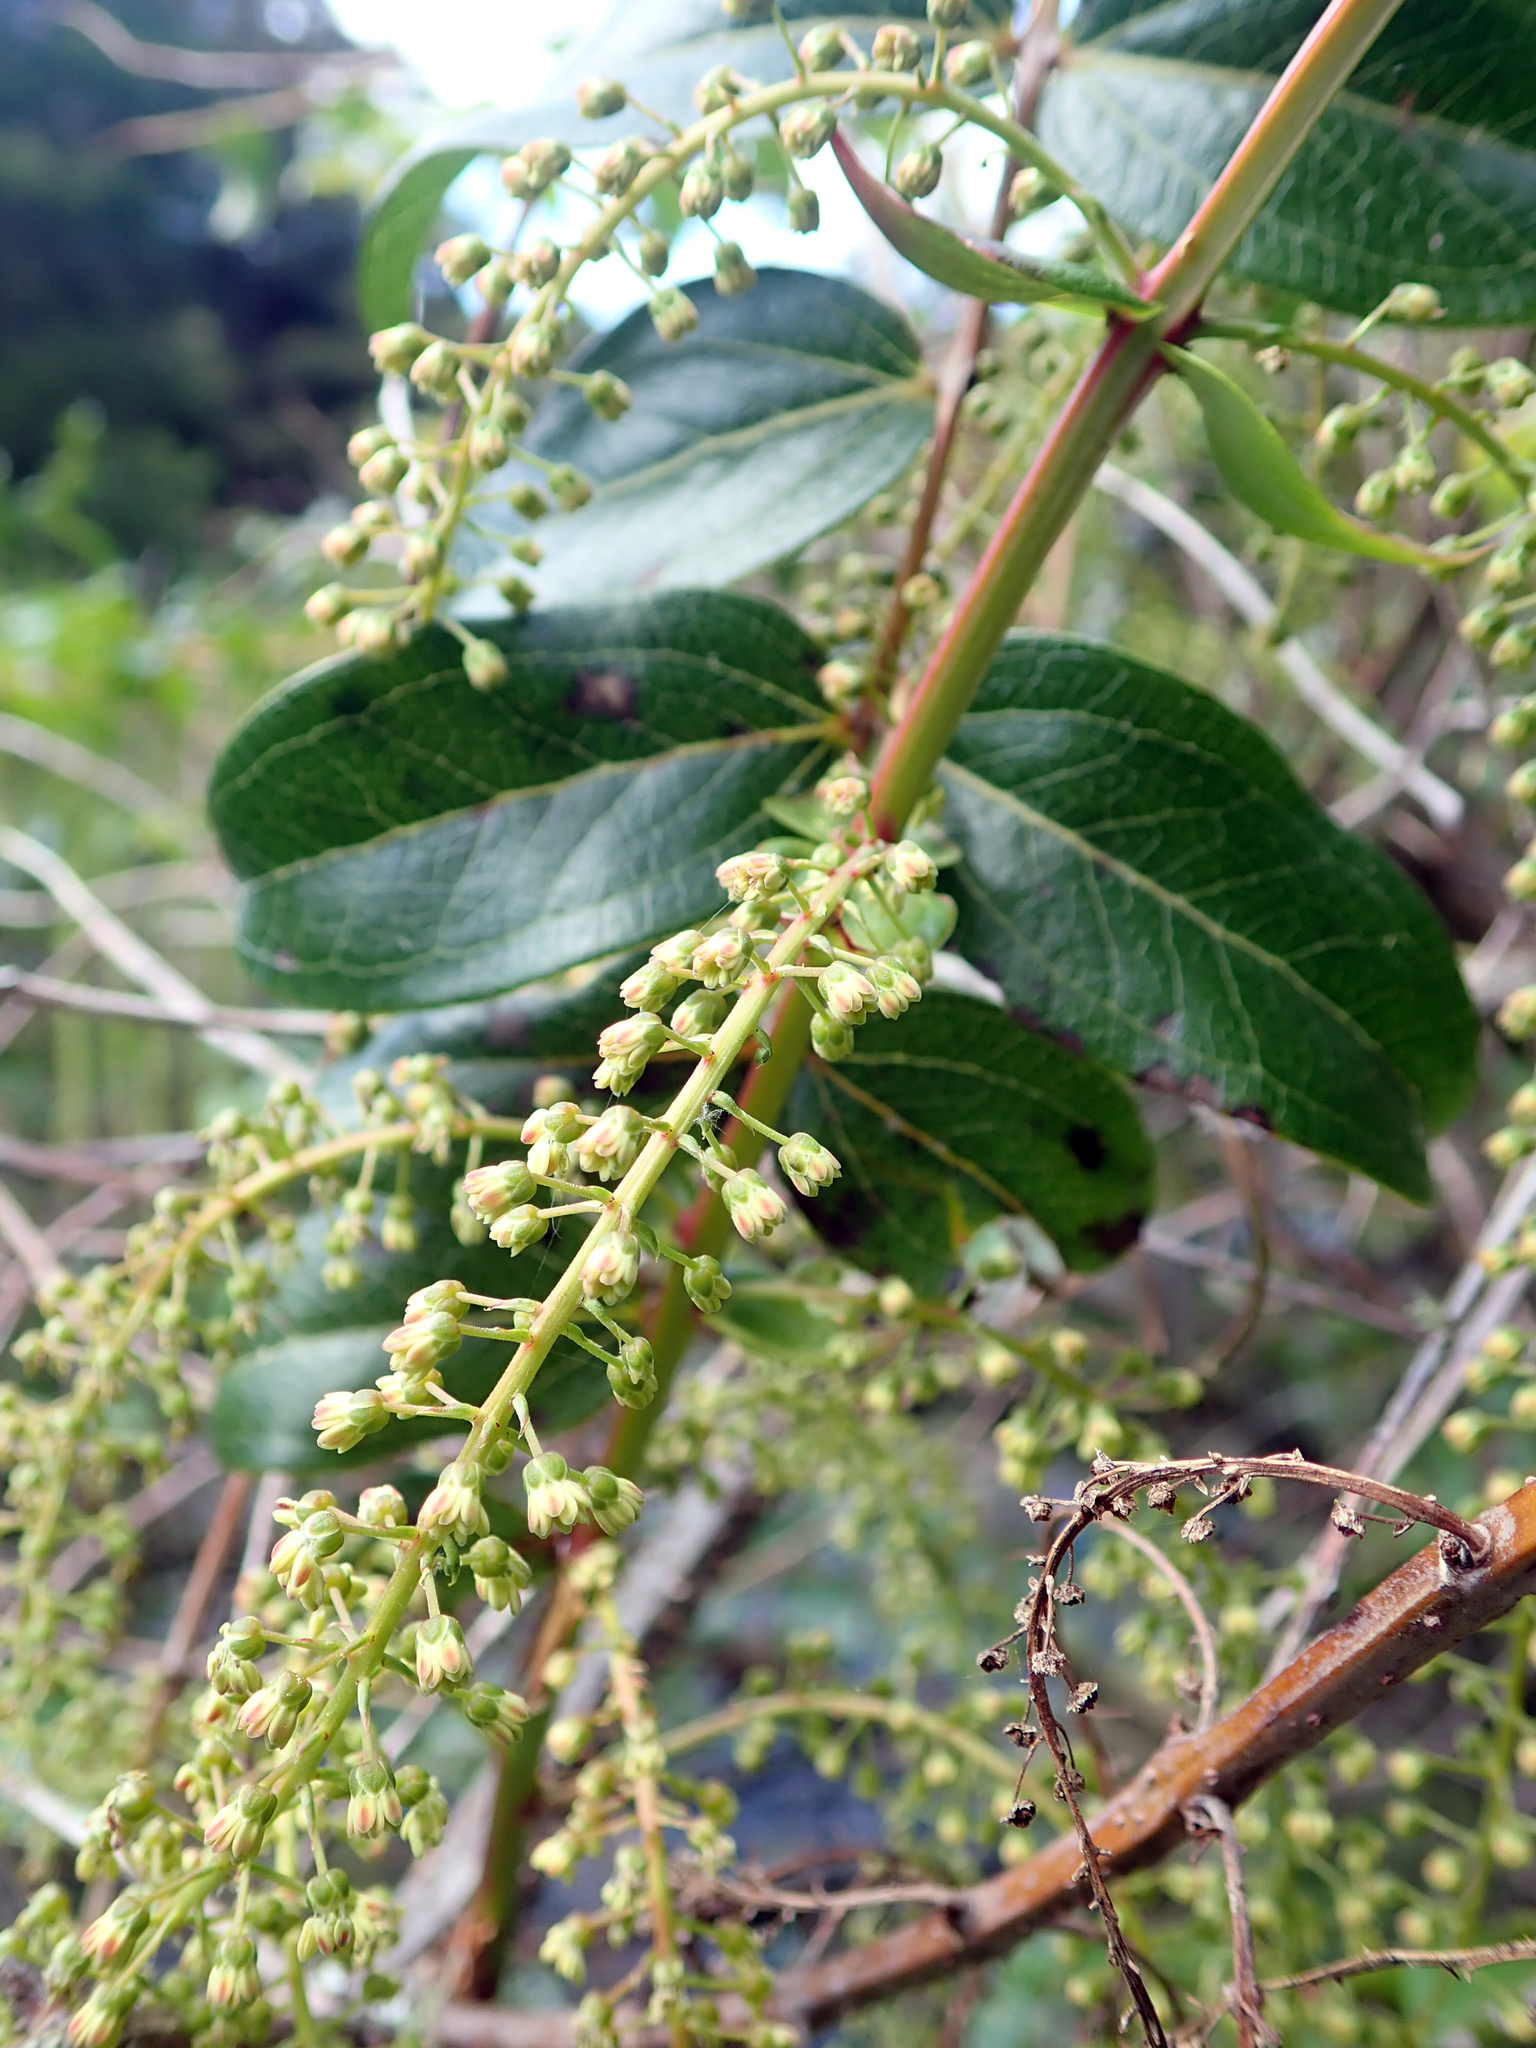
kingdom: Plantae
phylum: Tracheophyta
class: Magnoliopsida
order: Cucurbitales
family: Coriariaceae
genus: Coriaria
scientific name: Coriaria arborea
